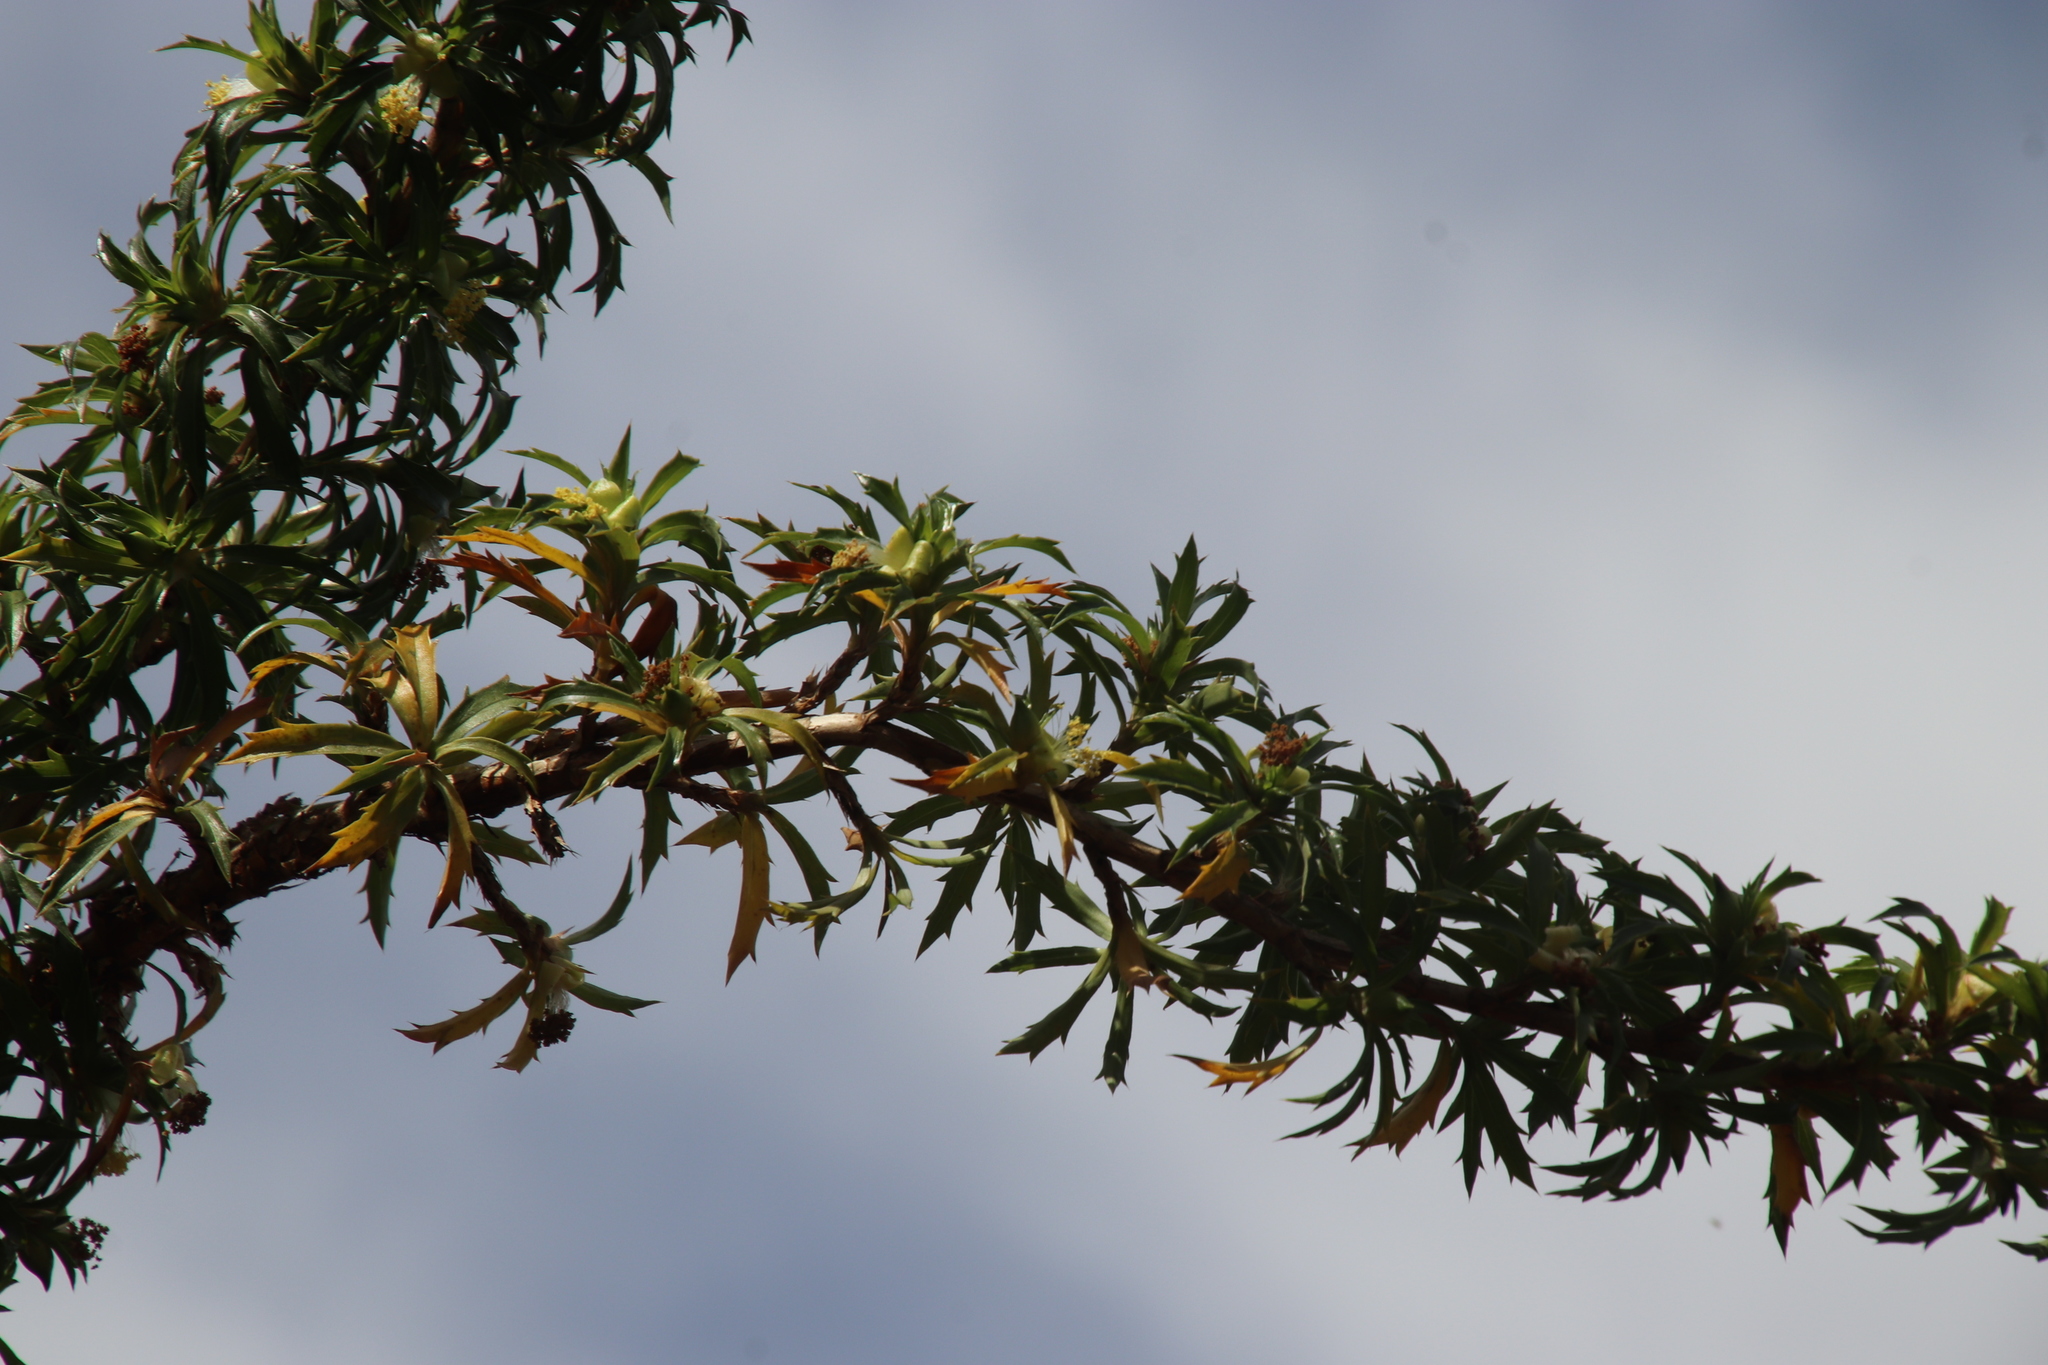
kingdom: Plantae
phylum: Tracheophyta
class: Magnoliopsida
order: Rosales
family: Rosaceae
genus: Cliffortia
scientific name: Cliffortia phillipsii
